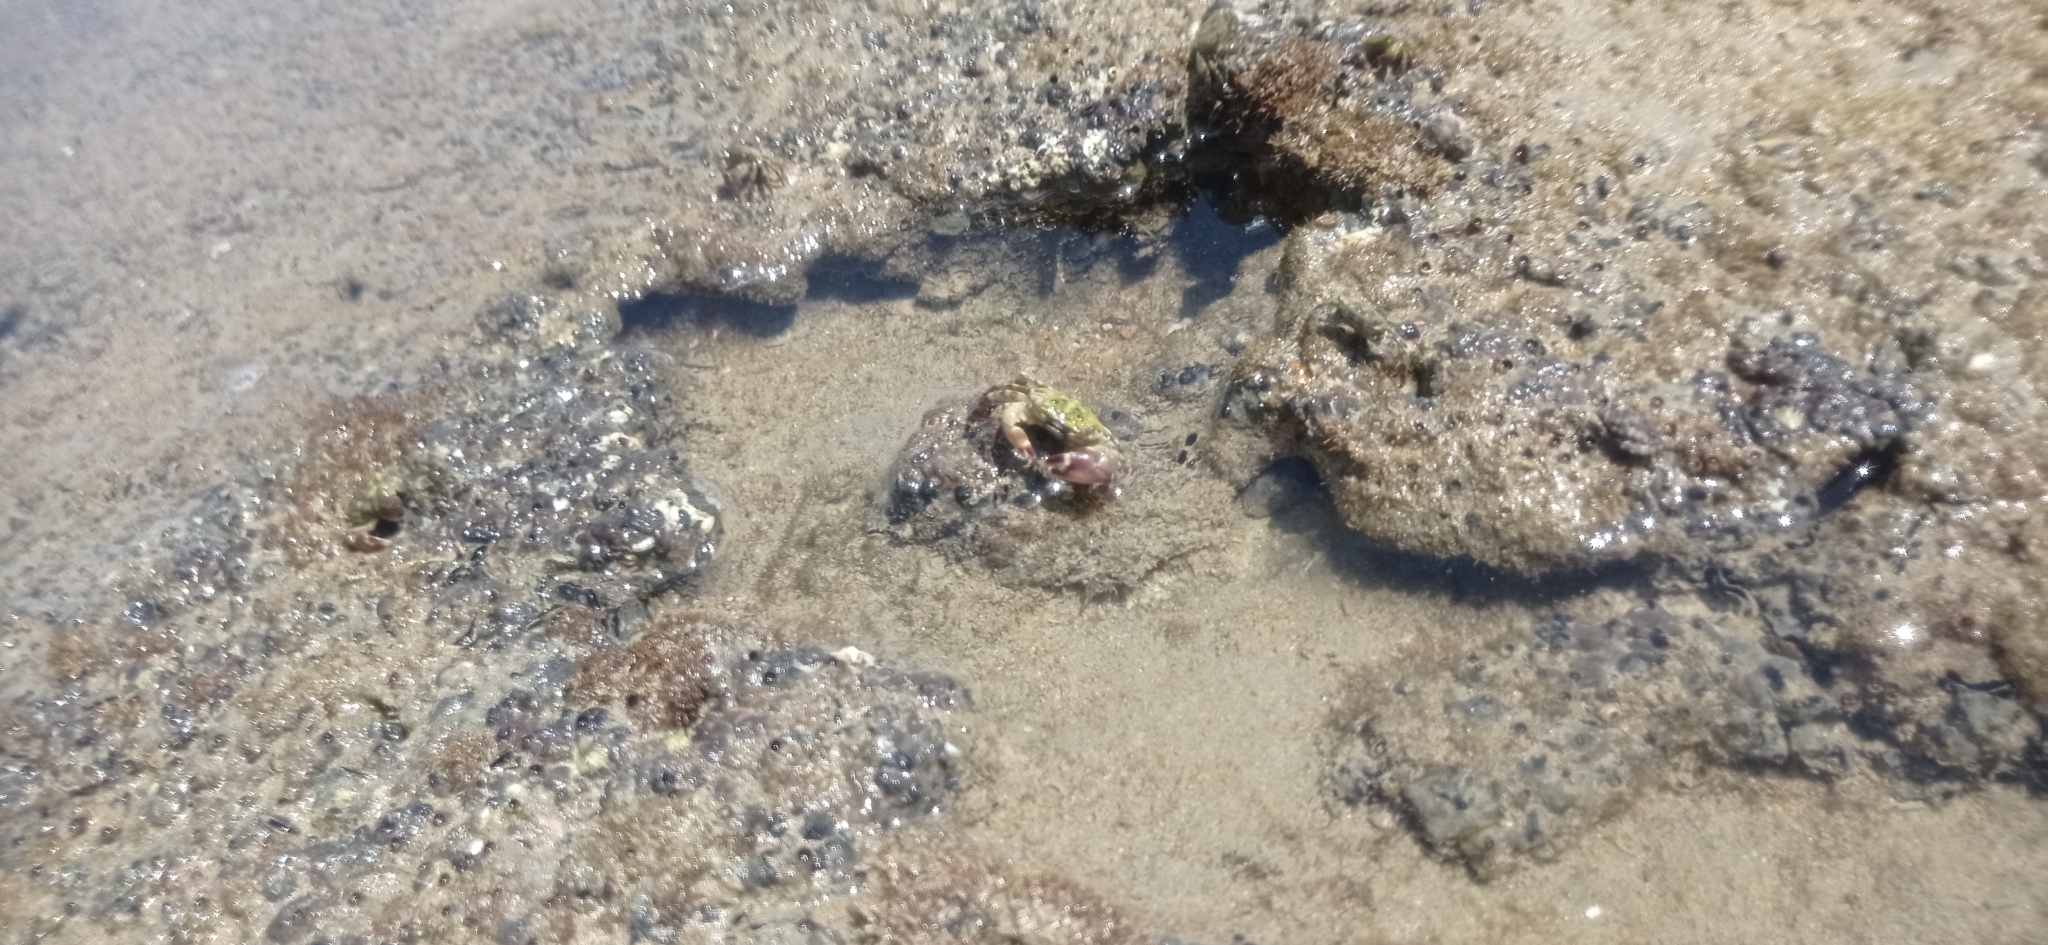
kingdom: Animalia
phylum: Arthropoda
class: Malacostraca
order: Decapoda
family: Grapsidae
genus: Pachygrapsus
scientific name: Pachygrapsus transversus
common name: Mottled shore crab
